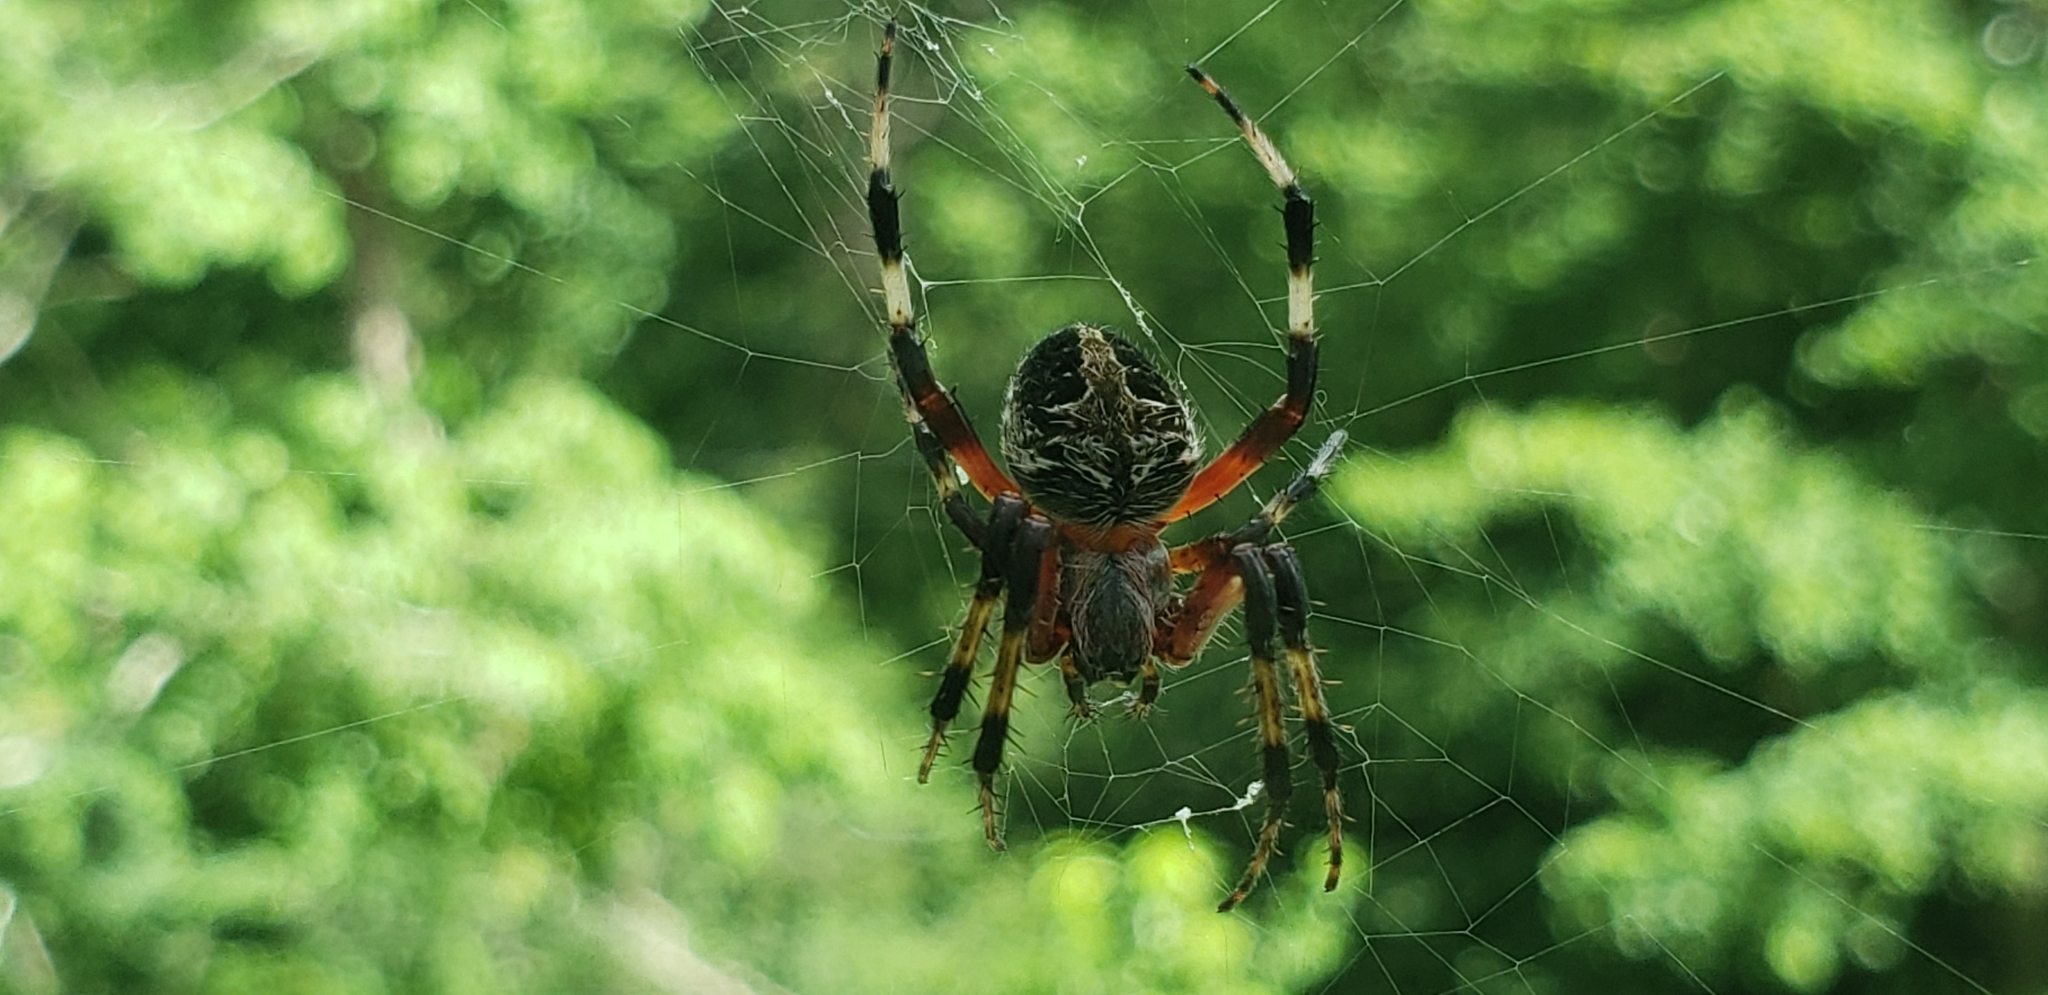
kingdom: Animalia
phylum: Arthropoda
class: Arachnida
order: Araneae
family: Araneidae
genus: Neoscona
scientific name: Neoscona domiciliorum
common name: Red-femured spotted orbweaver
